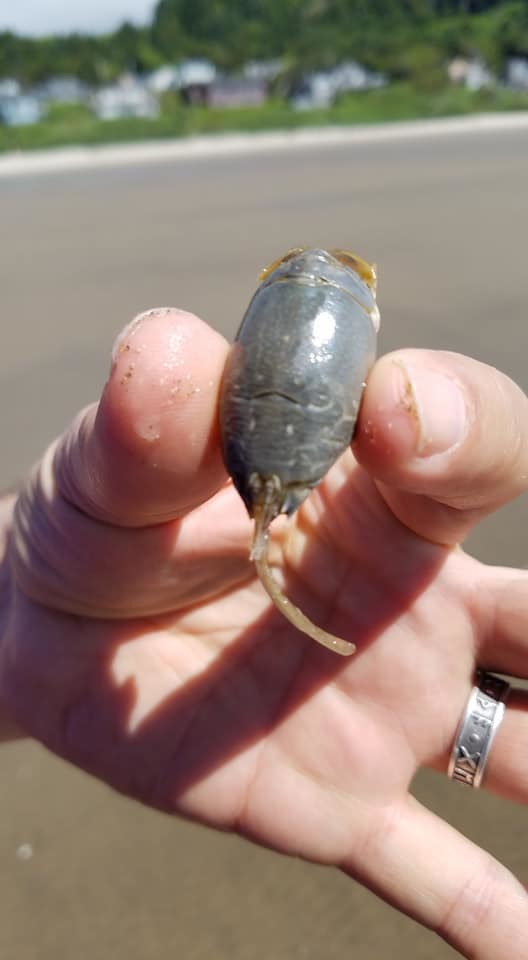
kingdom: Animalia
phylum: Arthropoda
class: Malacostraca
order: Decapoda
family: Hippidae
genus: Emerita
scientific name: Emerita analoga
